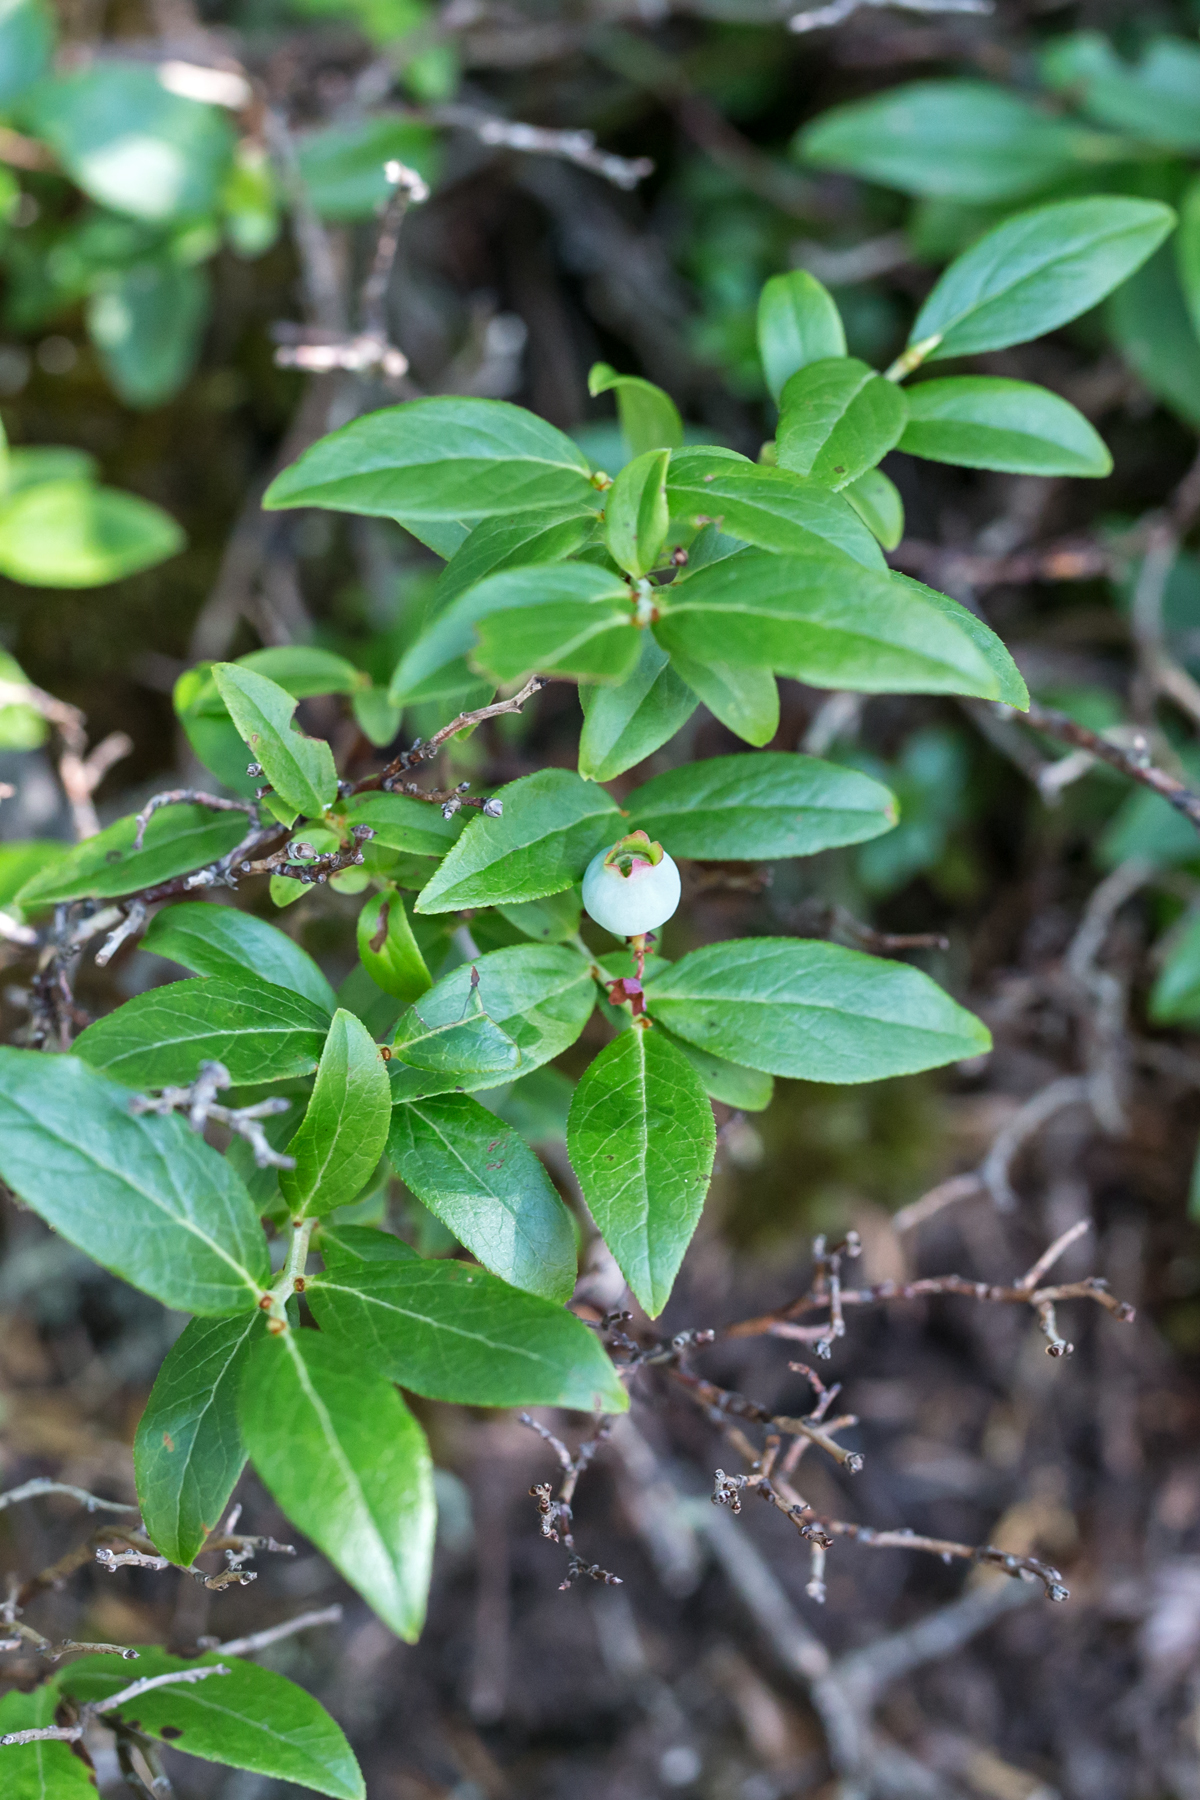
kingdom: Plantae
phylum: Tracheophyta
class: Magnoliopsida
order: Ericales
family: Ericaceae
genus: Vaccinium
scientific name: Vaccinium angustifolium
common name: Early lowbush blueberry
